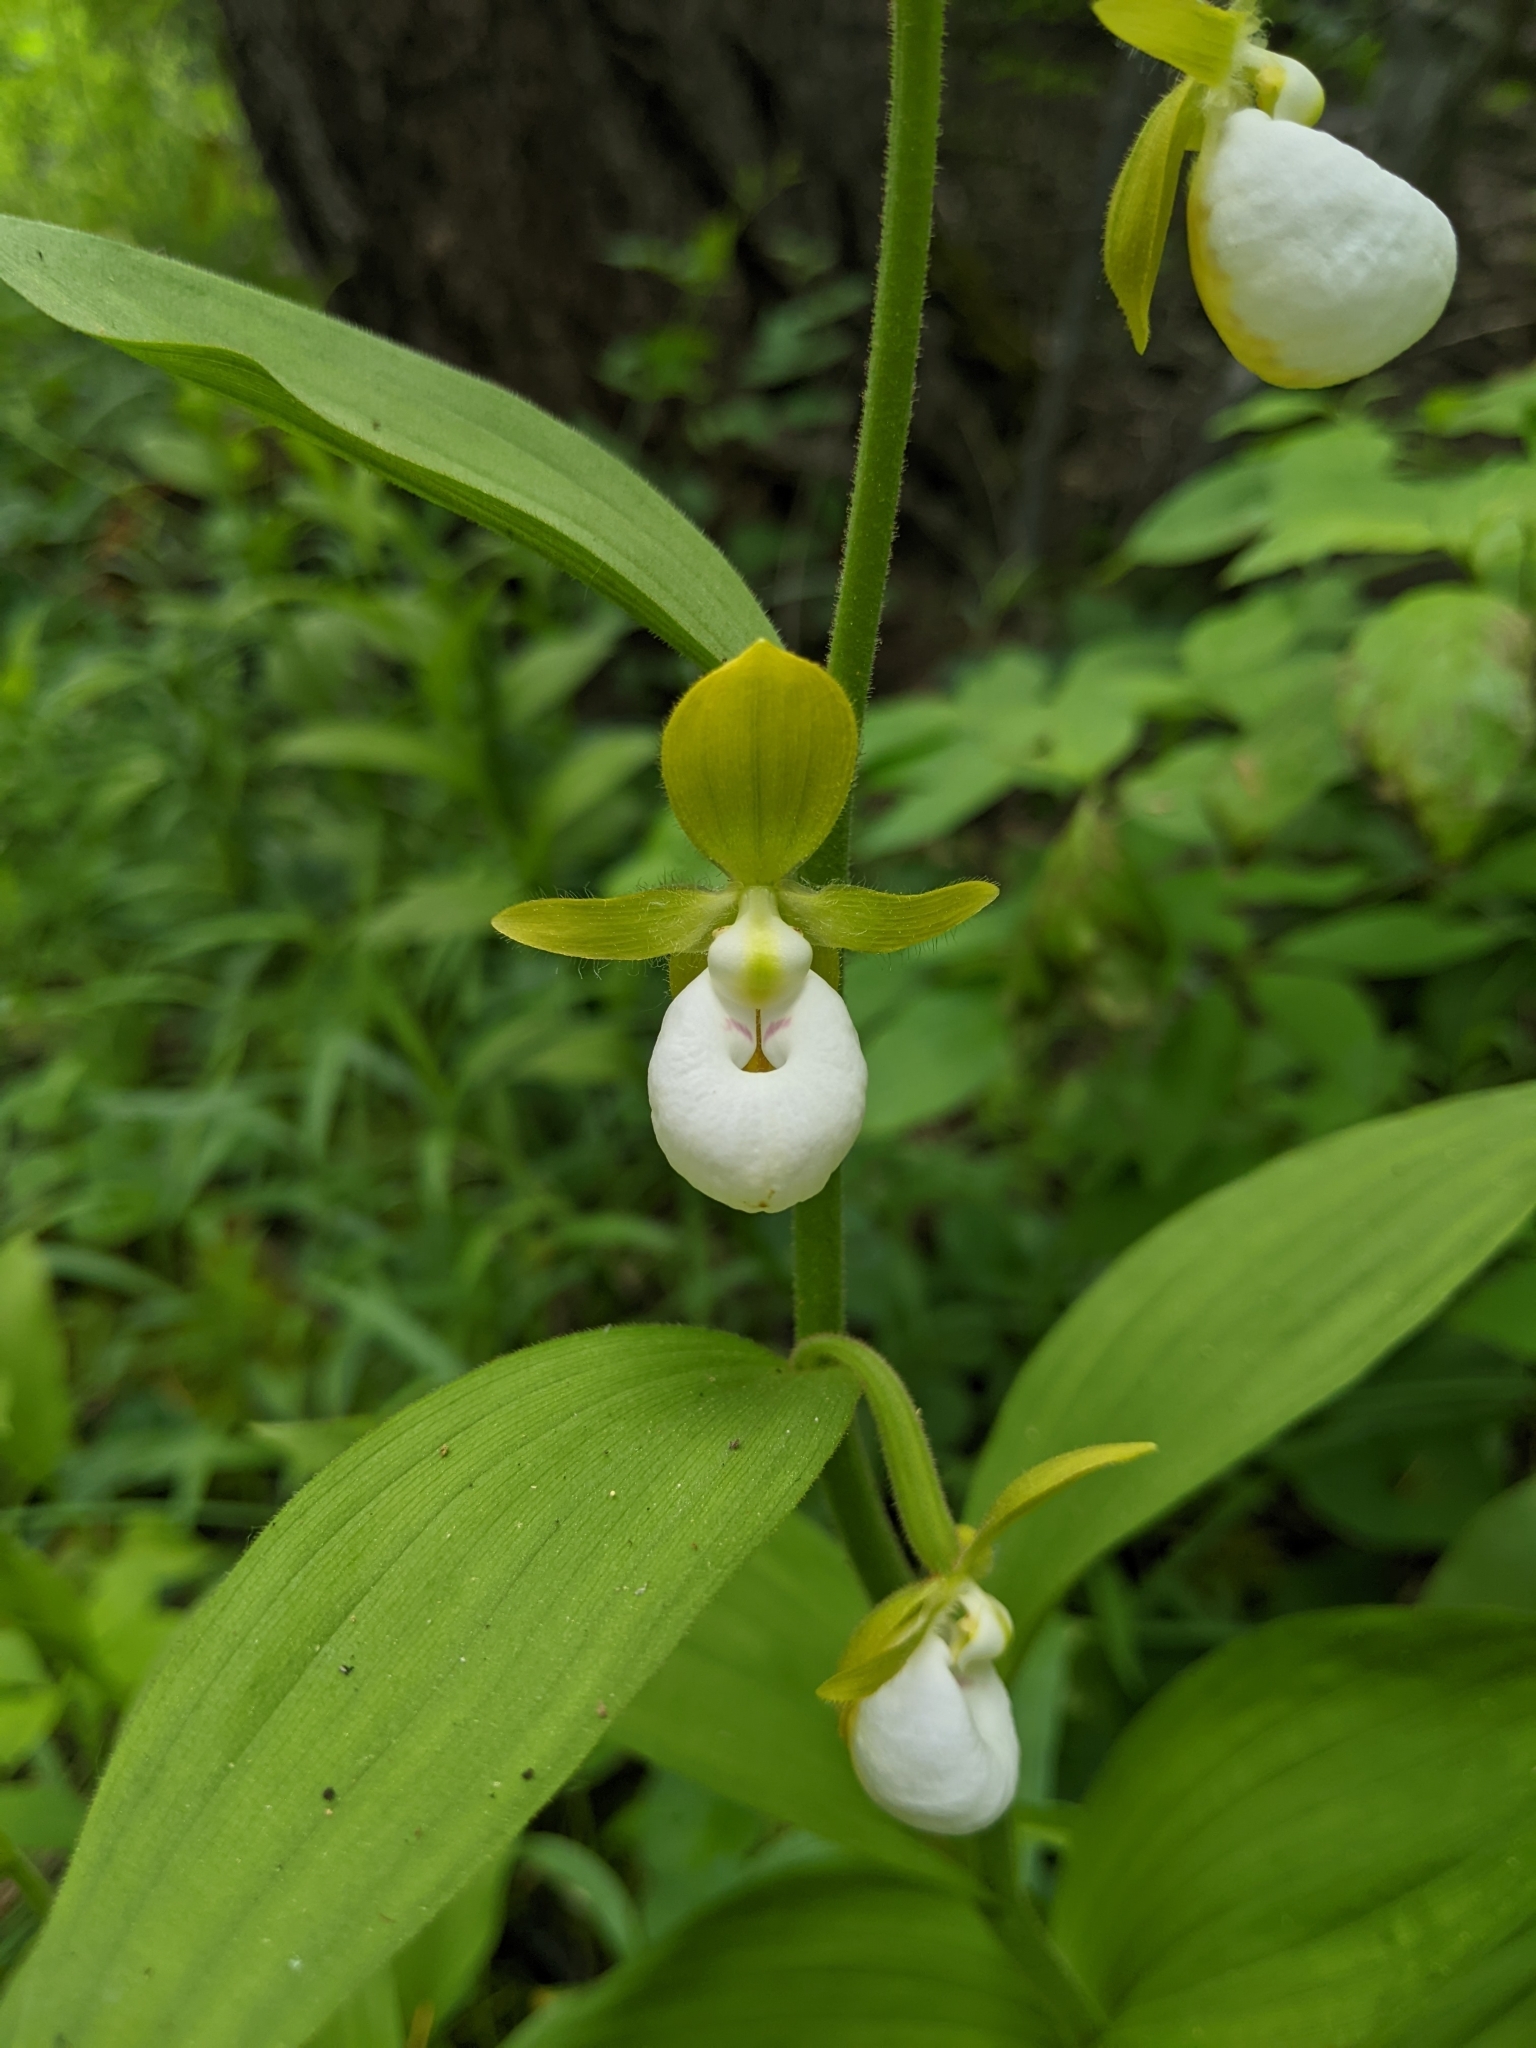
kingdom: Plantae
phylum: Tracheophyta
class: Liliopsida
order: Asparagales
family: Orchidaceae
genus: Cypripedium
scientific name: Cypripedium californicum
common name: California lady's slipper
